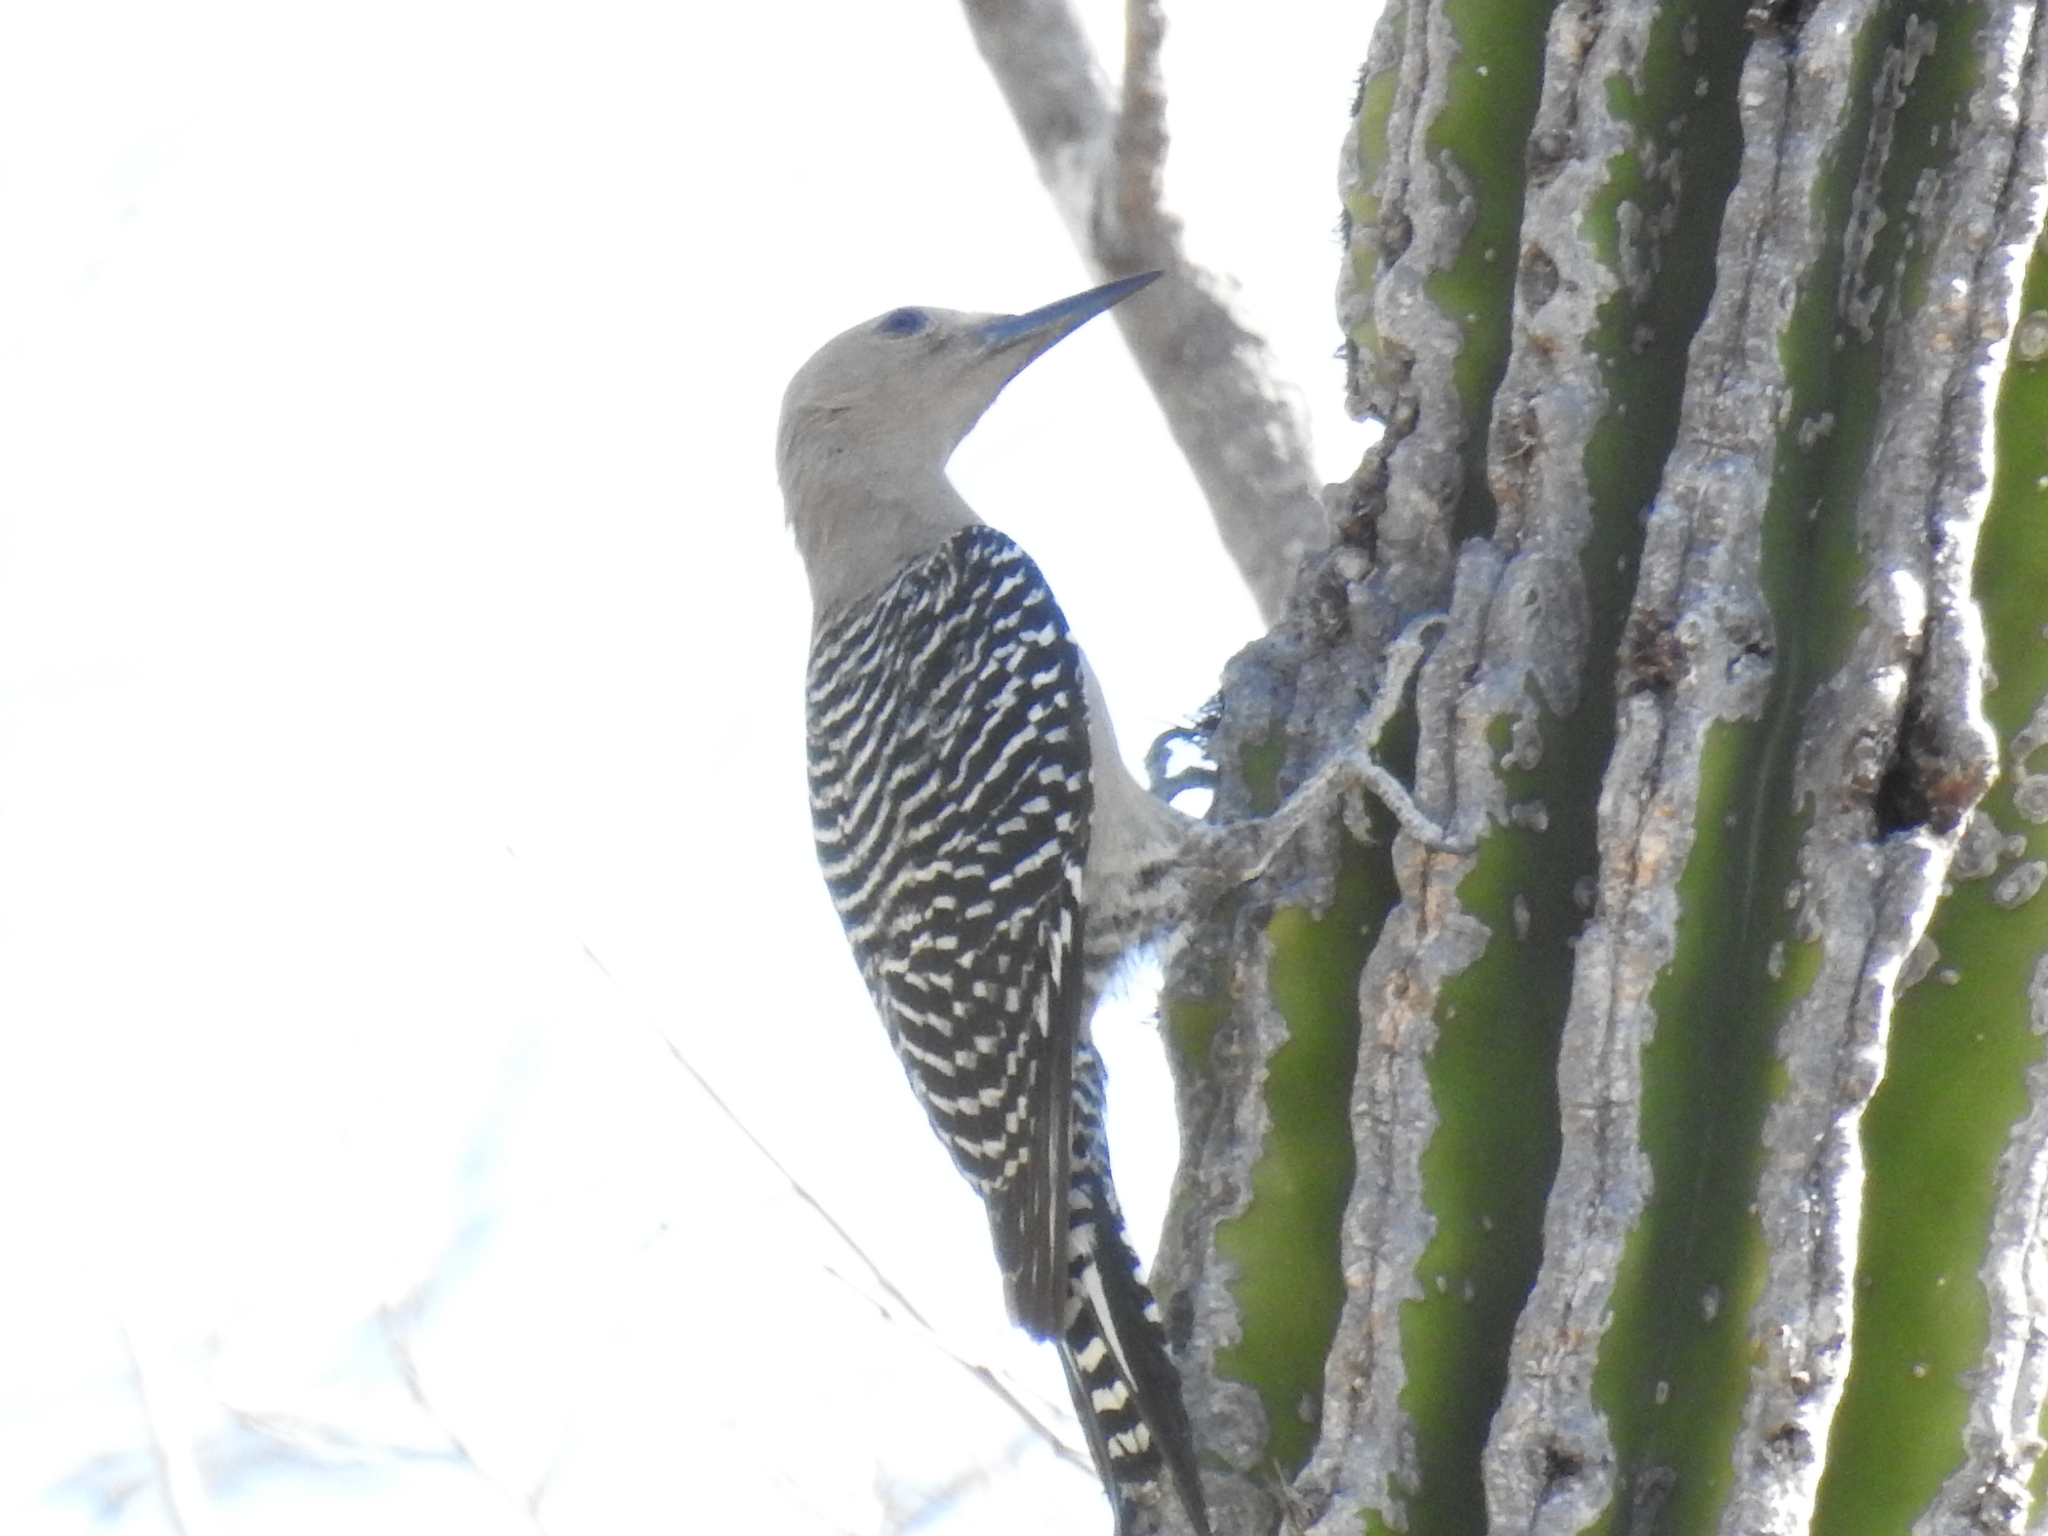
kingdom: Animalia
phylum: Chordata
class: Aves
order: Piciformes
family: Picidae
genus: Melanerpes
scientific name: Melanerpes uropygialis
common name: Gila woodpecker
